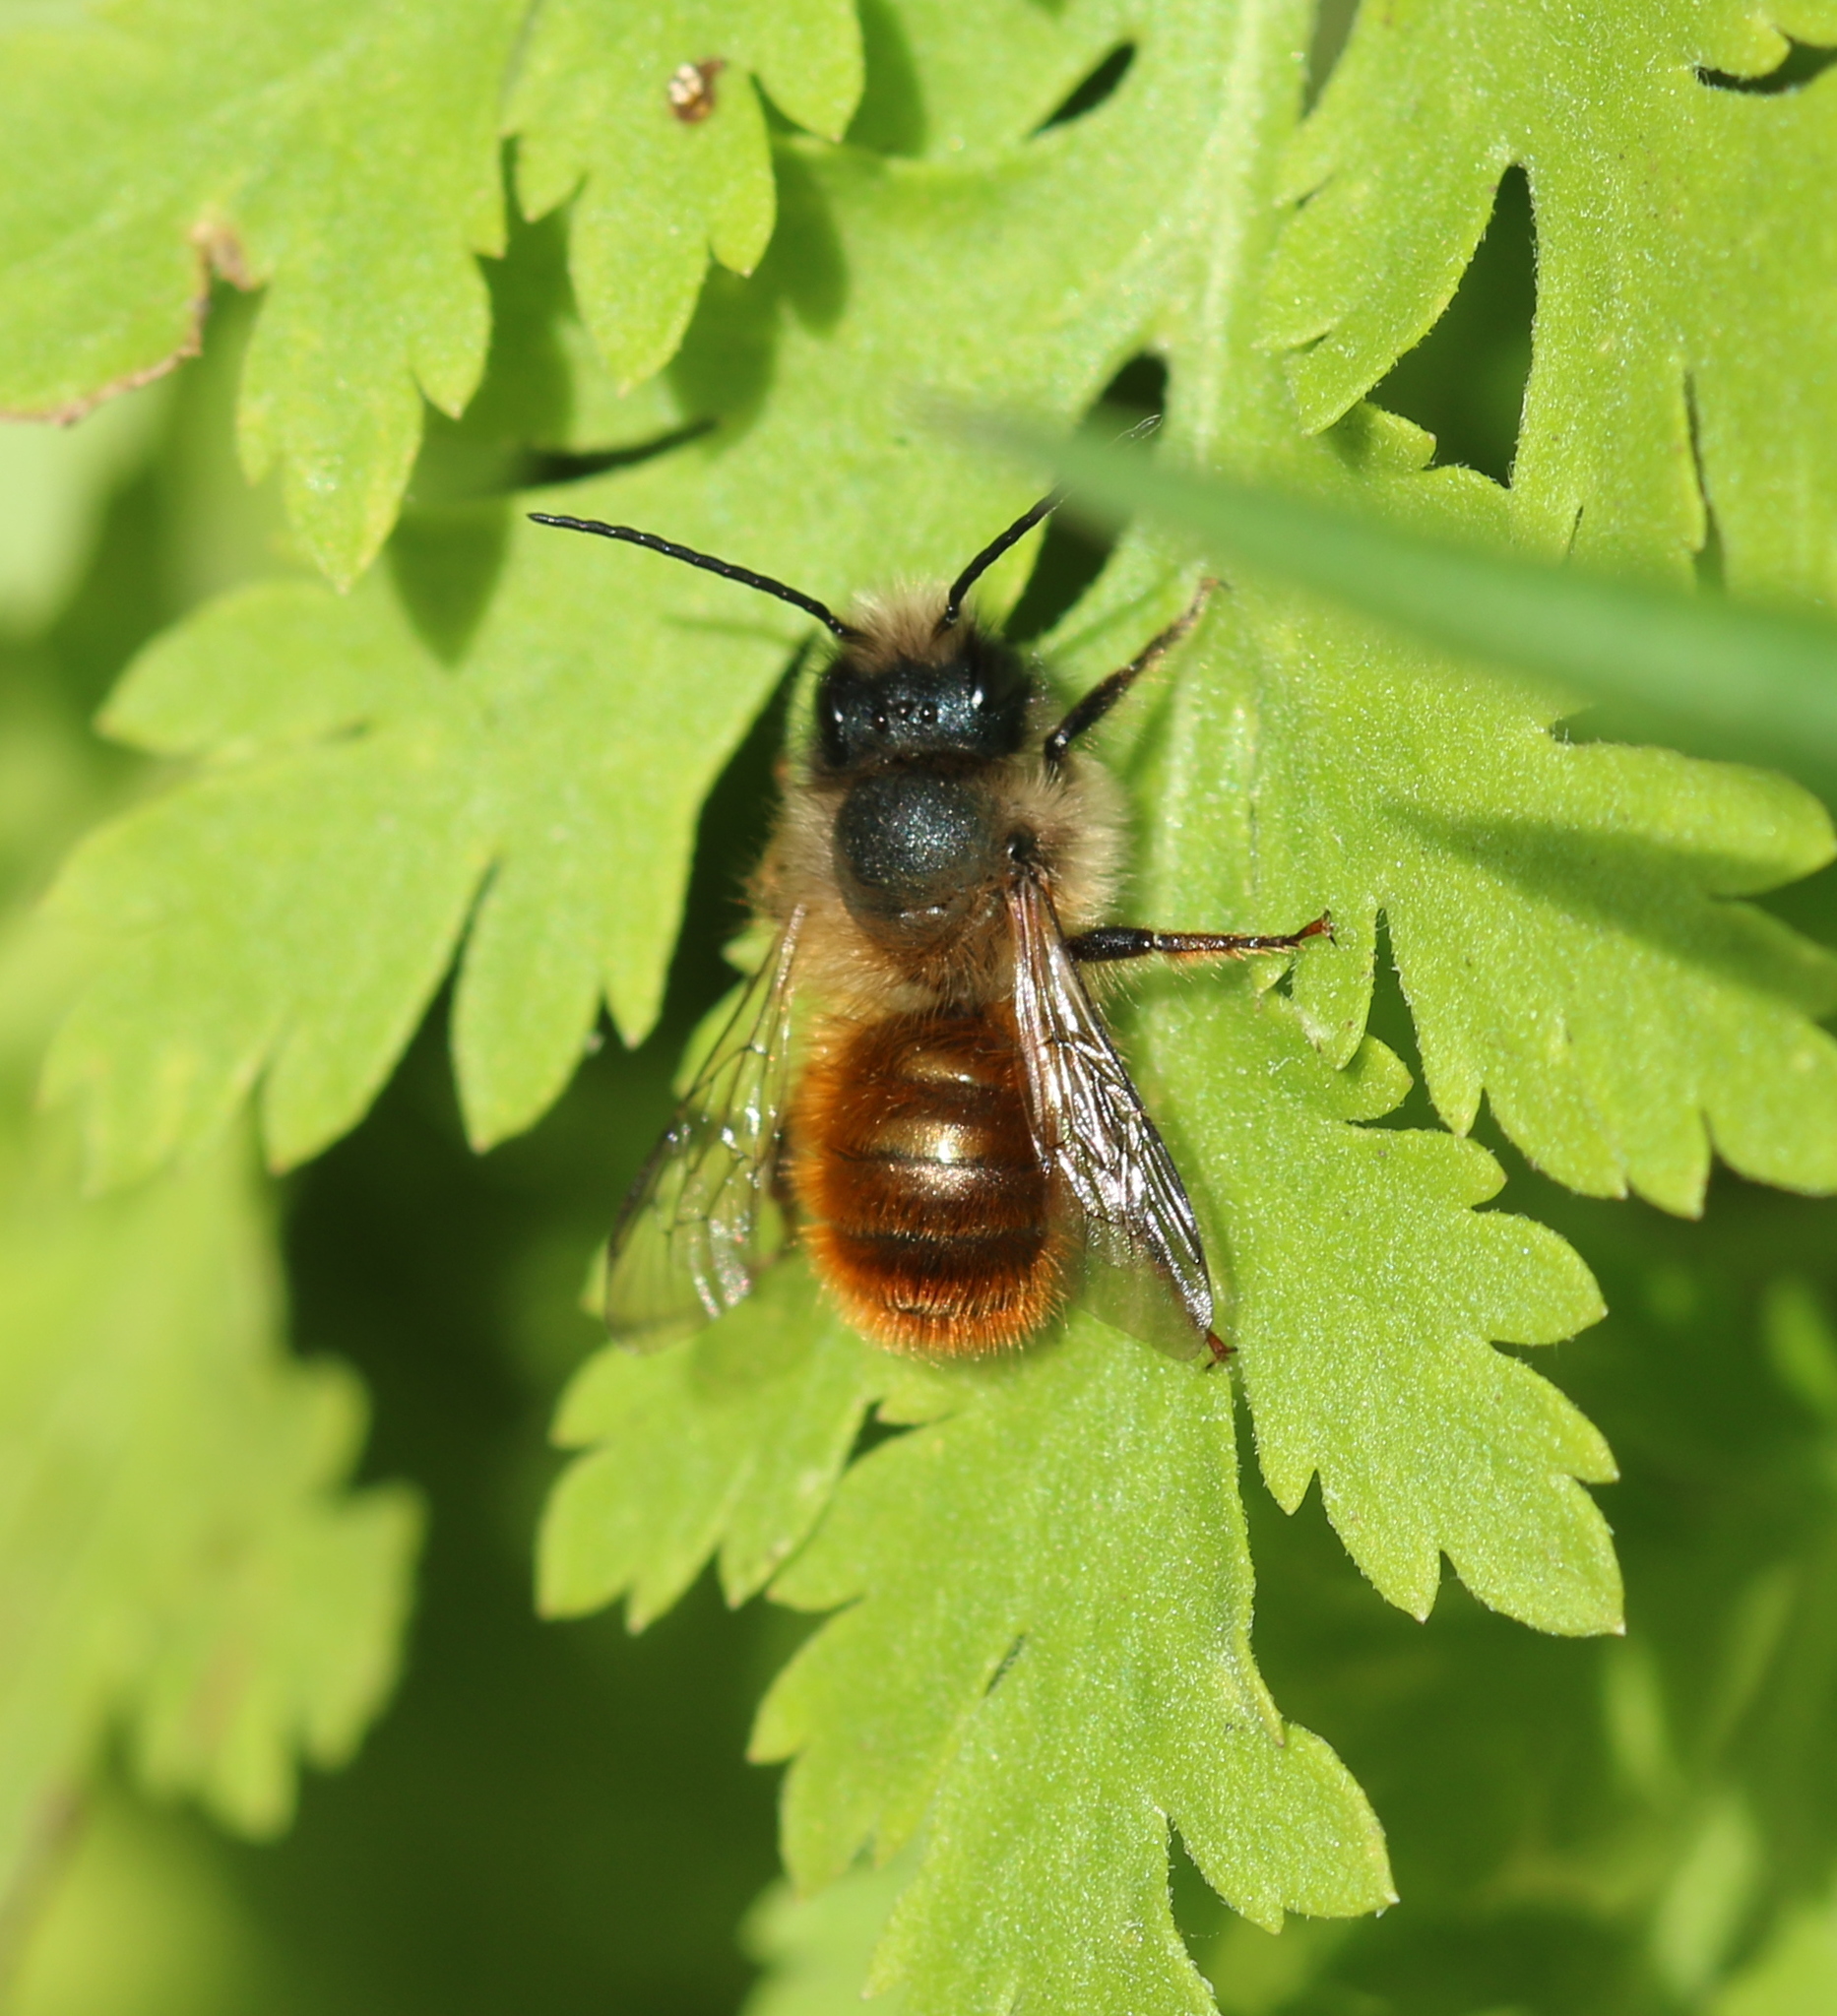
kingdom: Animalia
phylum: Arthropoda
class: Insecta
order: Hymenoptera
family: Megachilidae
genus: Osmia
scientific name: Osmia bicornis
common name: Red mason bee
